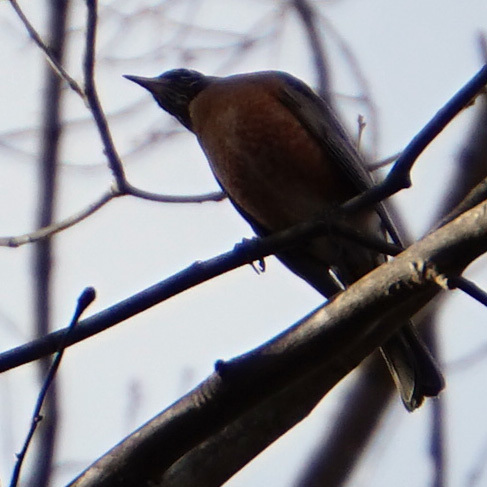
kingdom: Animalia
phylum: Chordata
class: Aves
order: Passeriformes
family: Turdidae
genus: Turdus
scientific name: Turdus migratorius
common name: American robin
